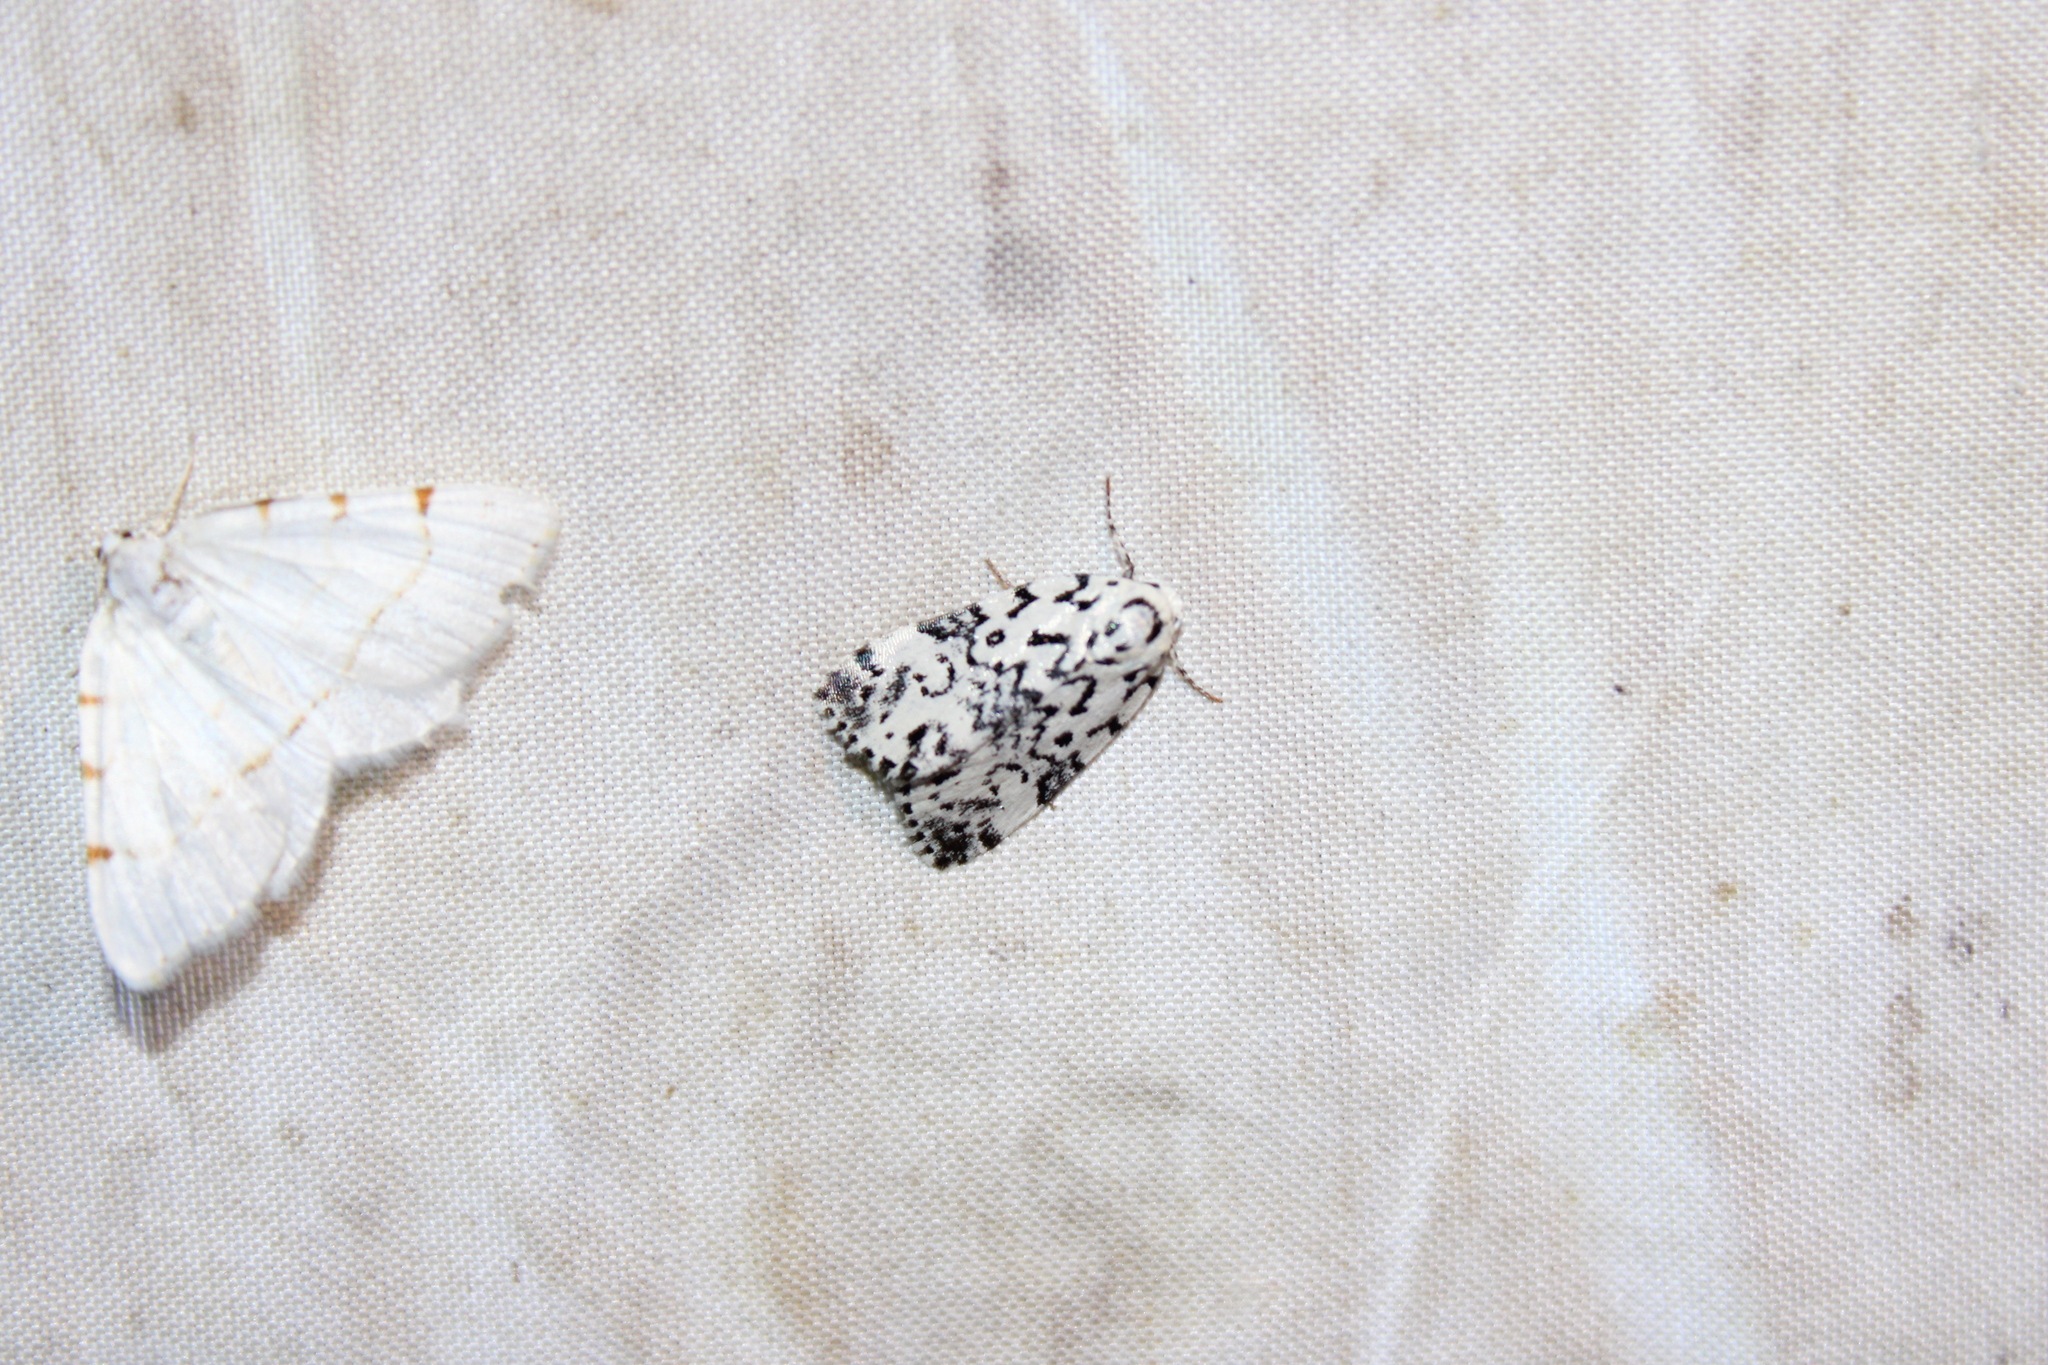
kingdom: Animalia
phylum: Arthropoda
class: Insecta
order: Lepidoptera
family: Noctuidae
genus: Polygrammate
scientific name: Polygrammate hebraeicum
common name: Hebrew moth
